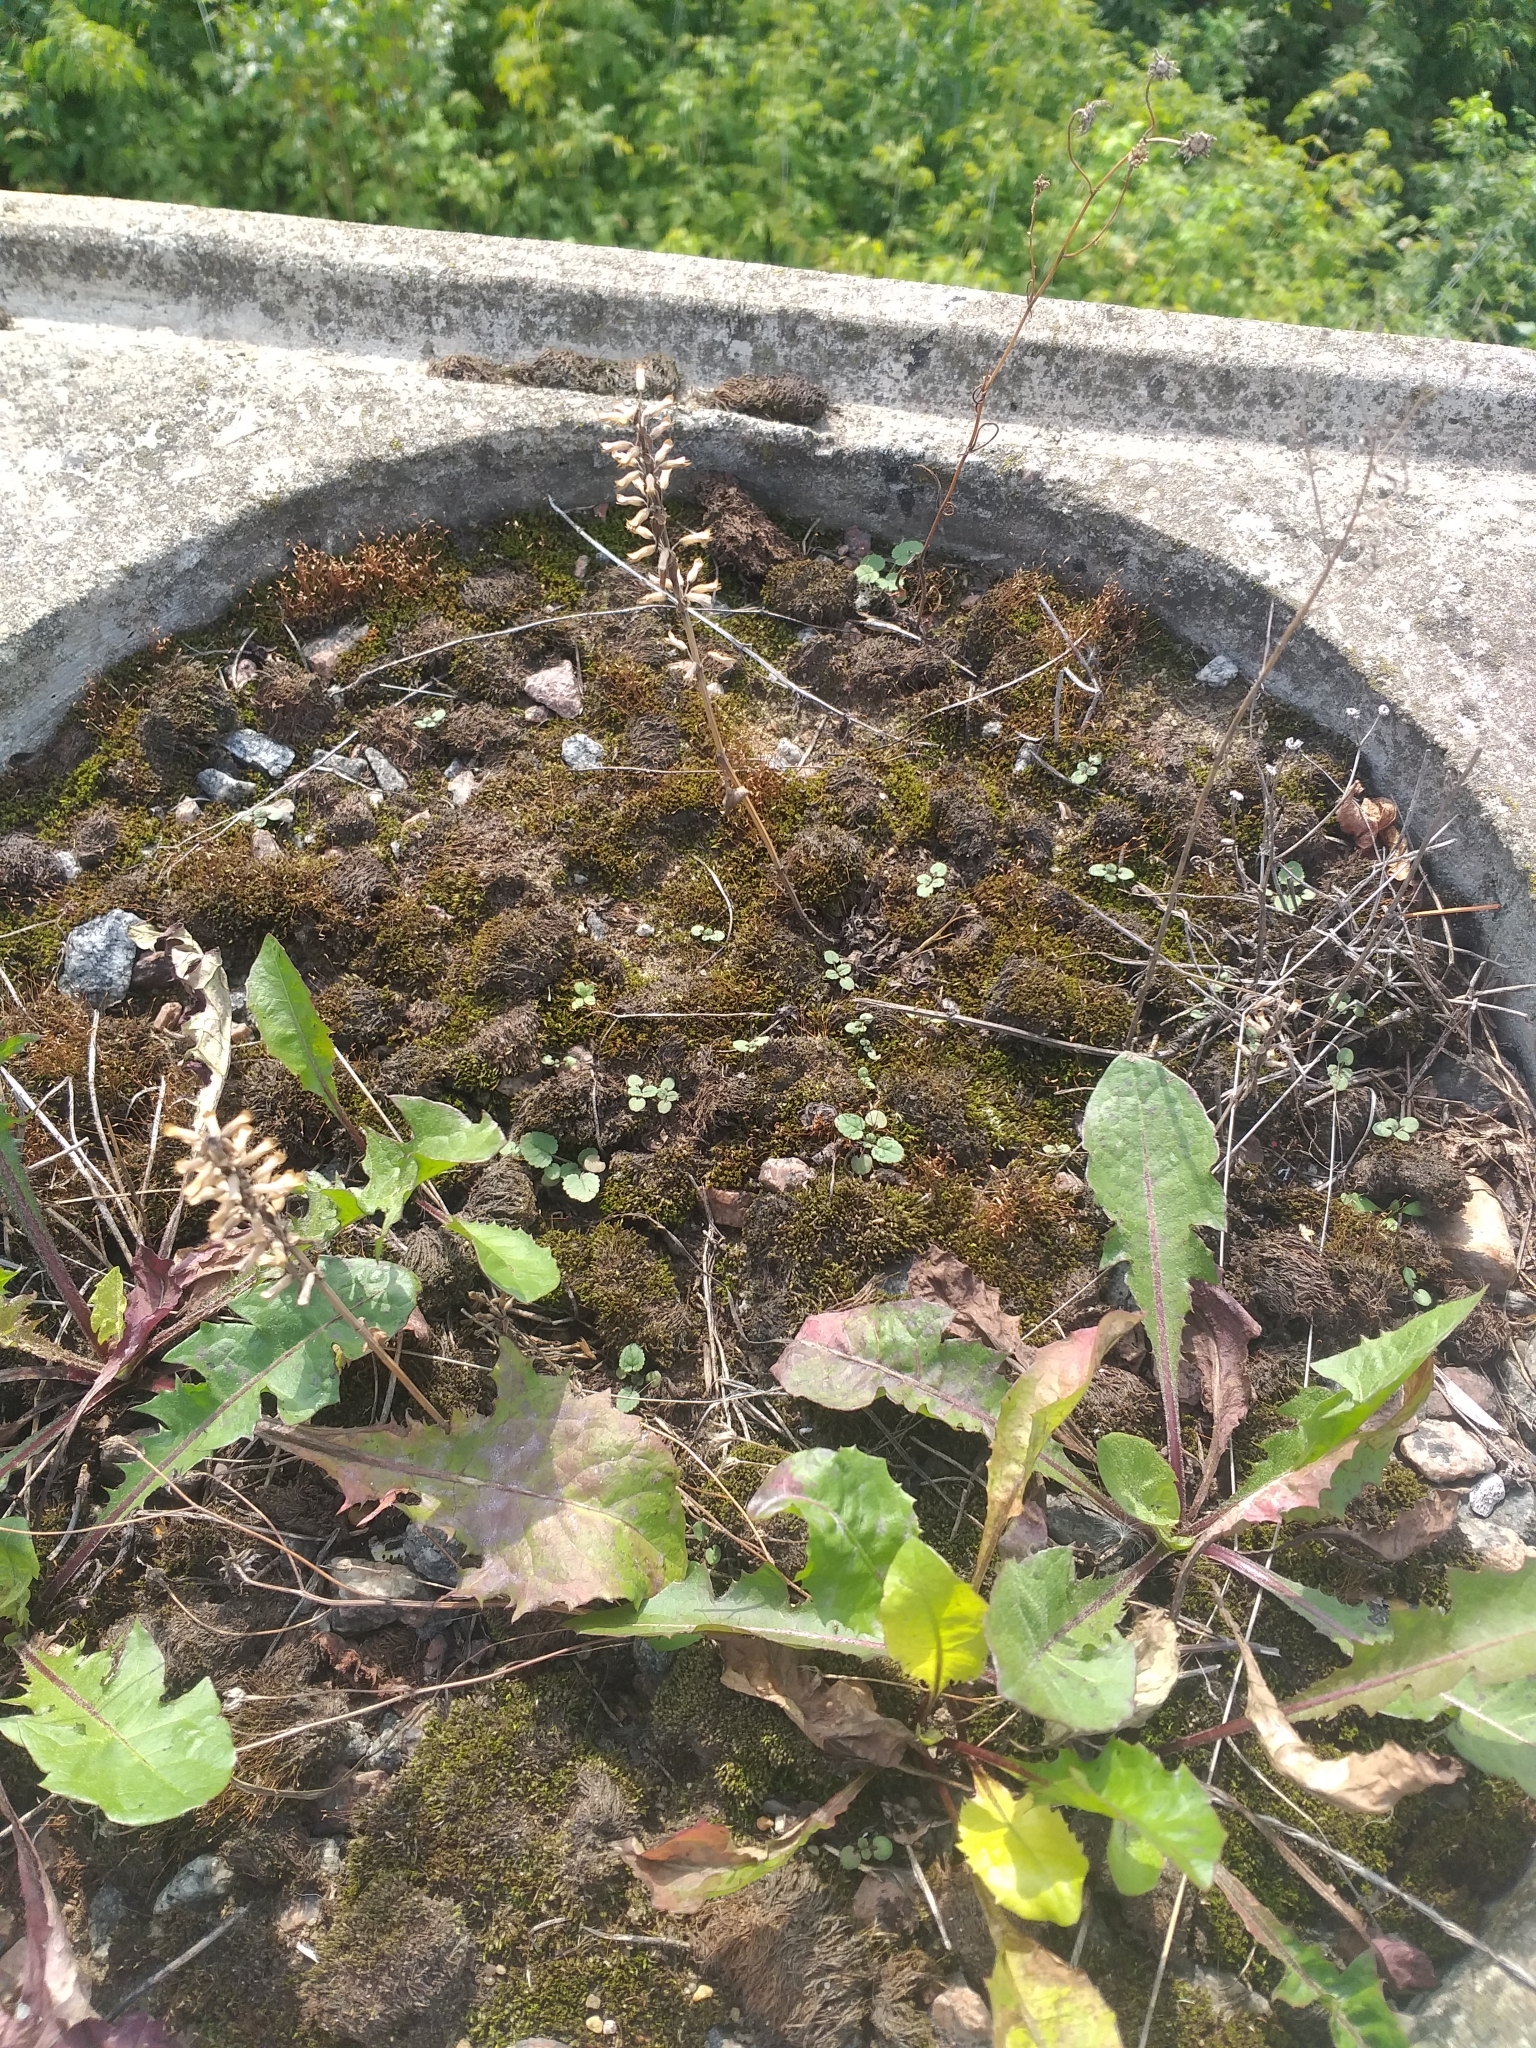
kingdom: Plantae
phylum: Tracheophyta
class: Magnoliopsida
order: Lamiales
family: Lamiaceae
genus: Dracocephalum
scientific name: Dracocephalum nutans
